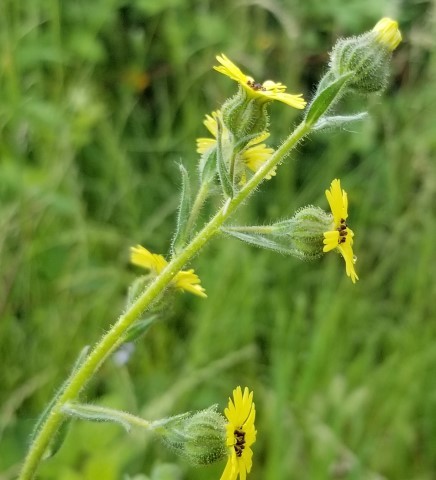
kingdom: Plantae
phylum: Tracheophyta
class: Magnoliopsida
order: Asterales
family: Asteraceae
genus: Madia
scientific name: Madia gracilis
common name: Grassy tarweed
